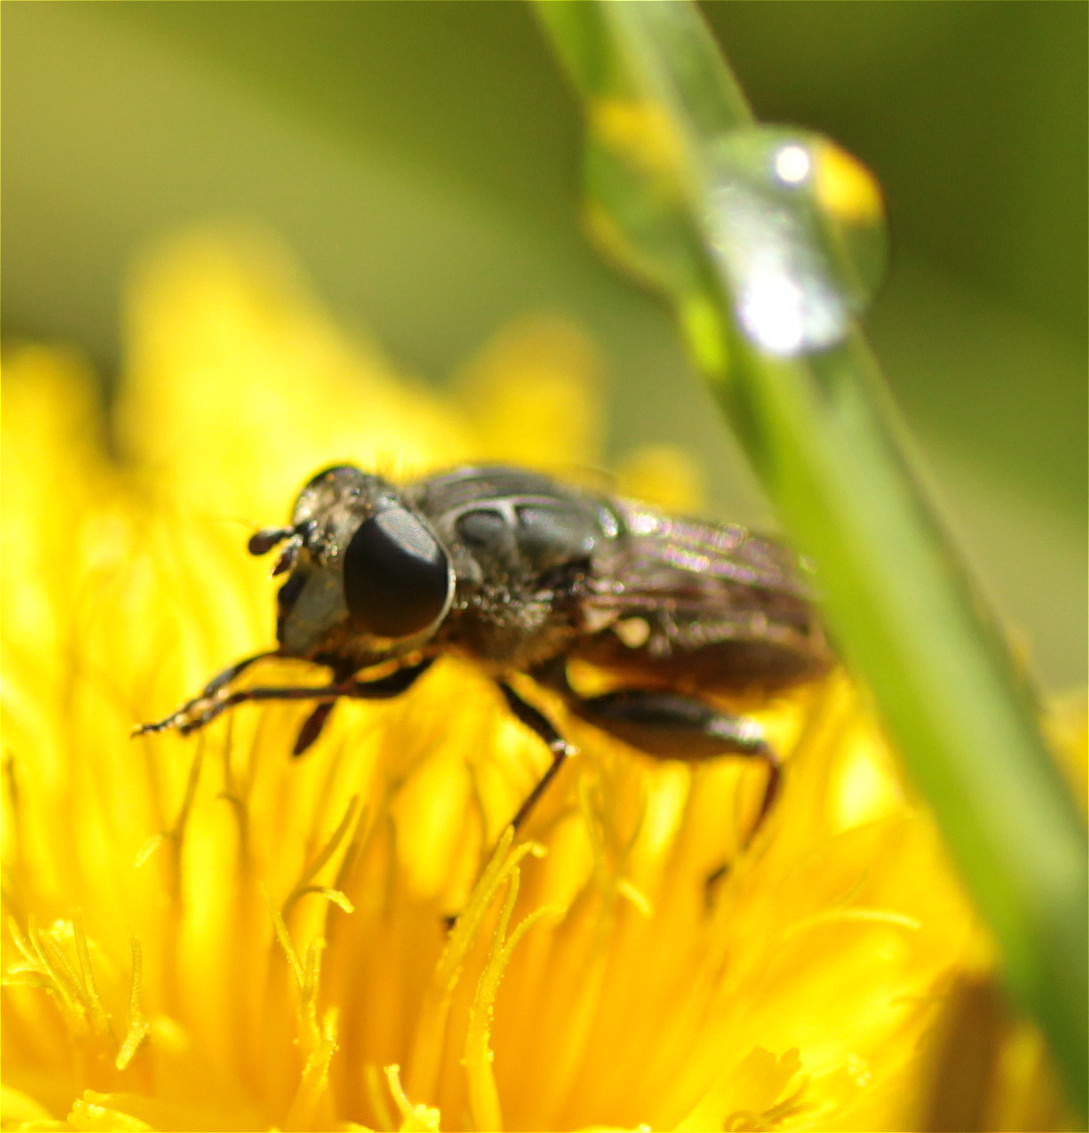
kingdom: Animalia
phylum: Arthropoda
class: Insecta
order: Diptera
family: Syrphidae
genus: Asemosyrphus
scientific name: Asemosyrphus
